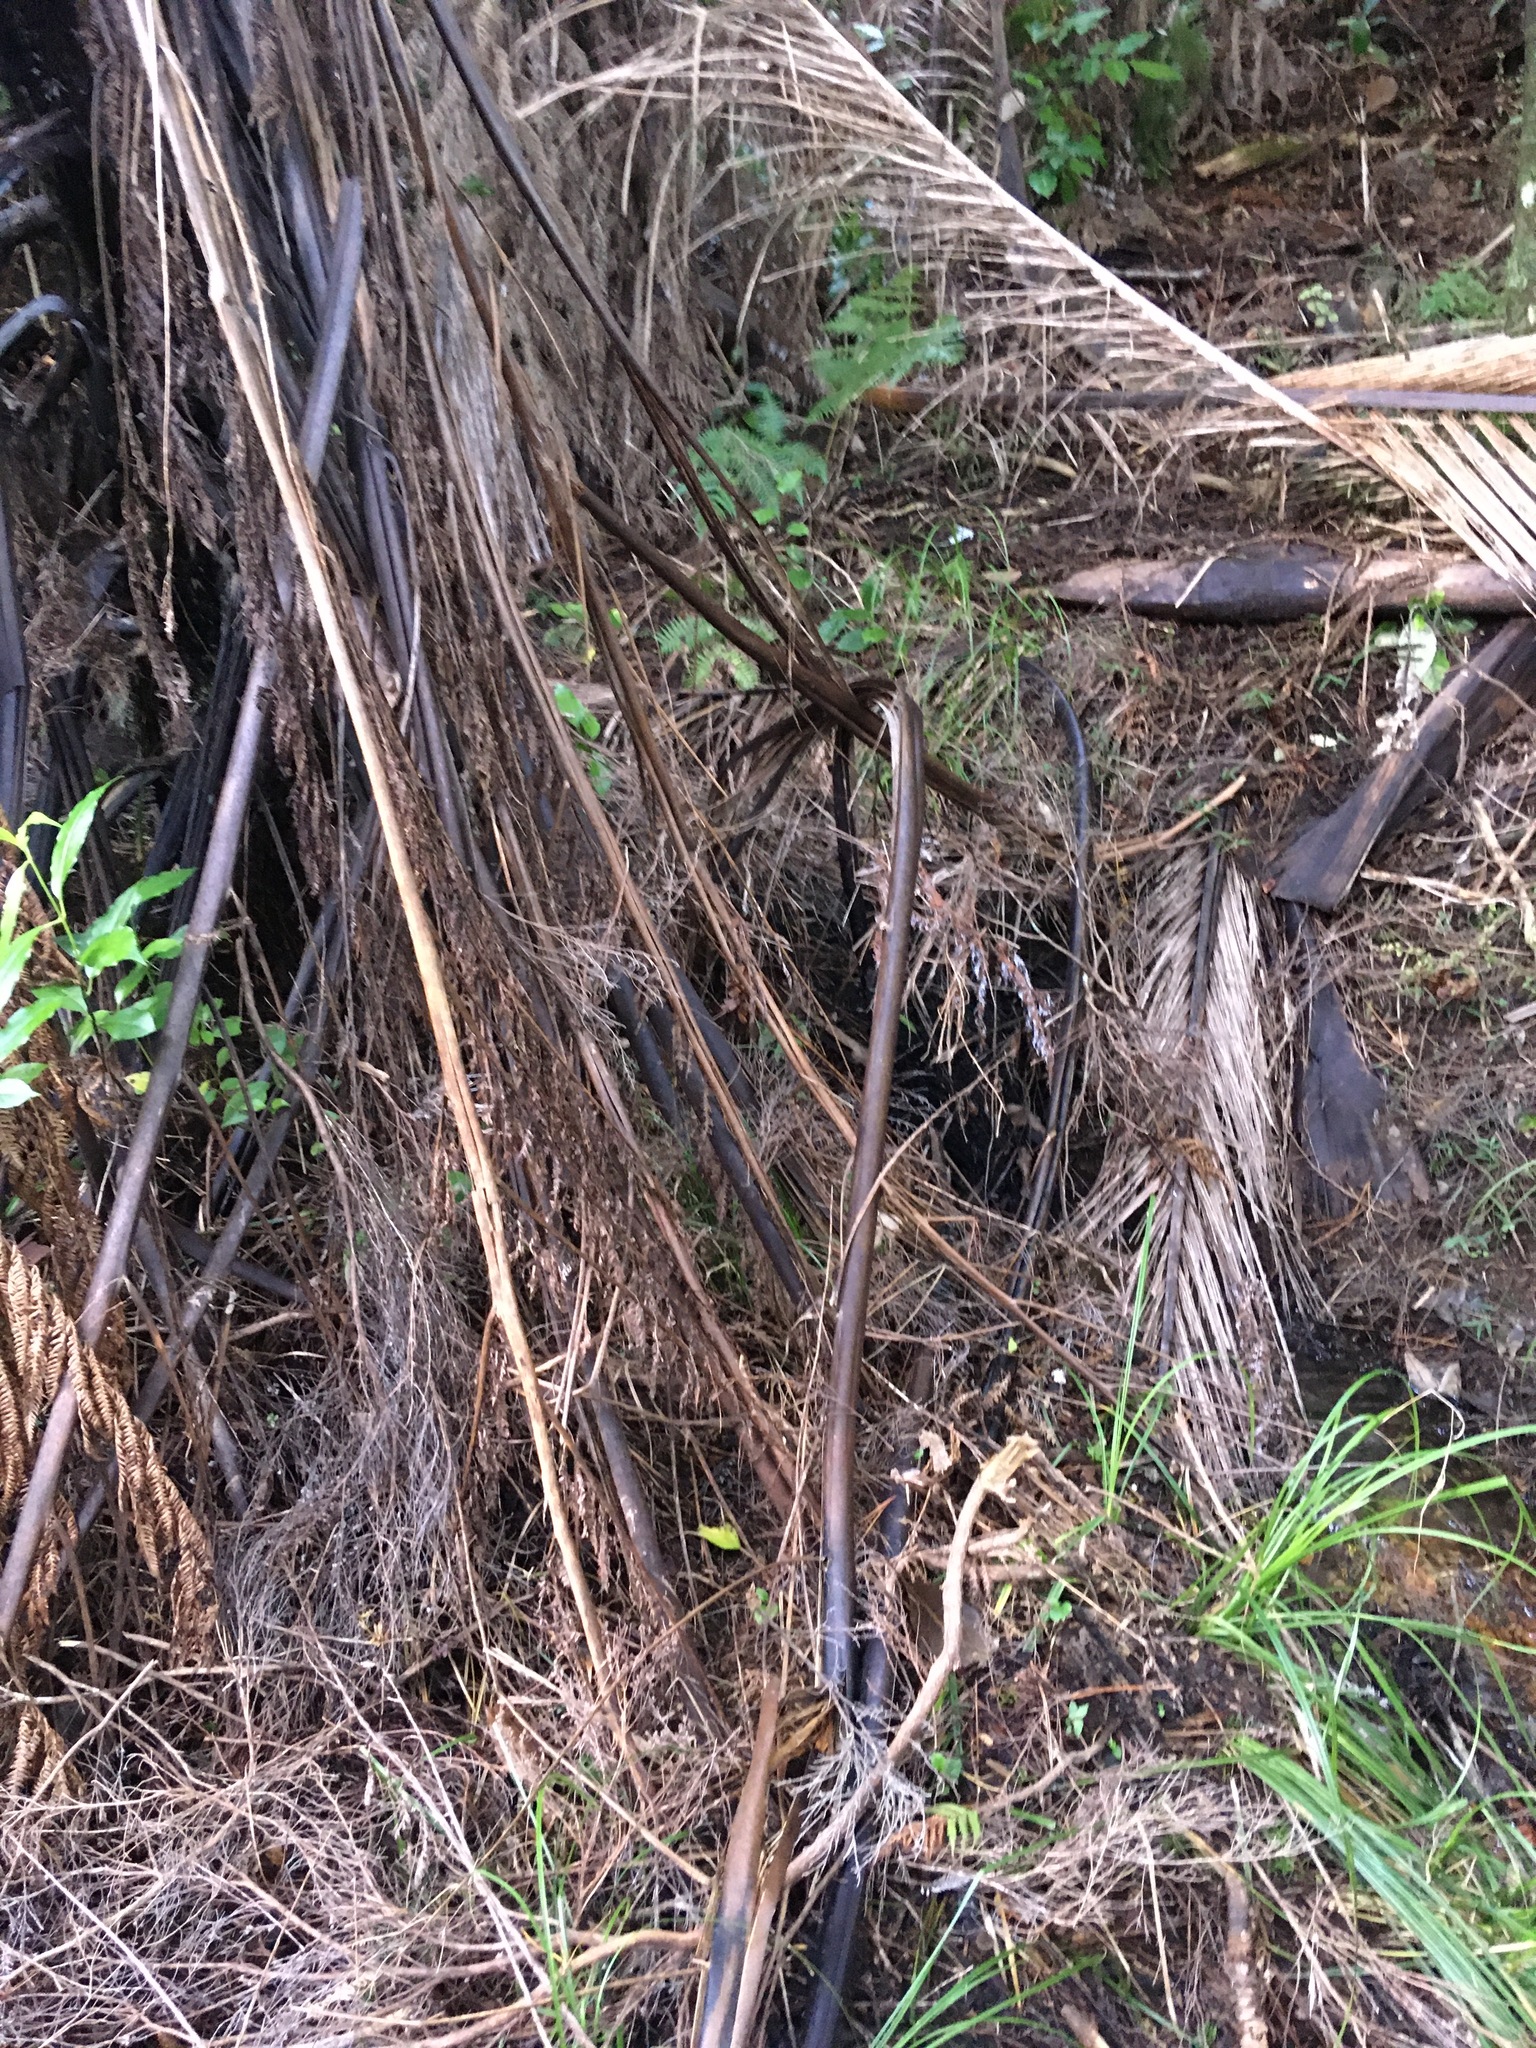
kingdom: Plantae
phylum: Tracheophyta
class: Polypodiopsida
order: Cyatheales
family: Cyatheaceae
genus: Sphaeropteris
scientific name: Sphaeropteris medullaris
